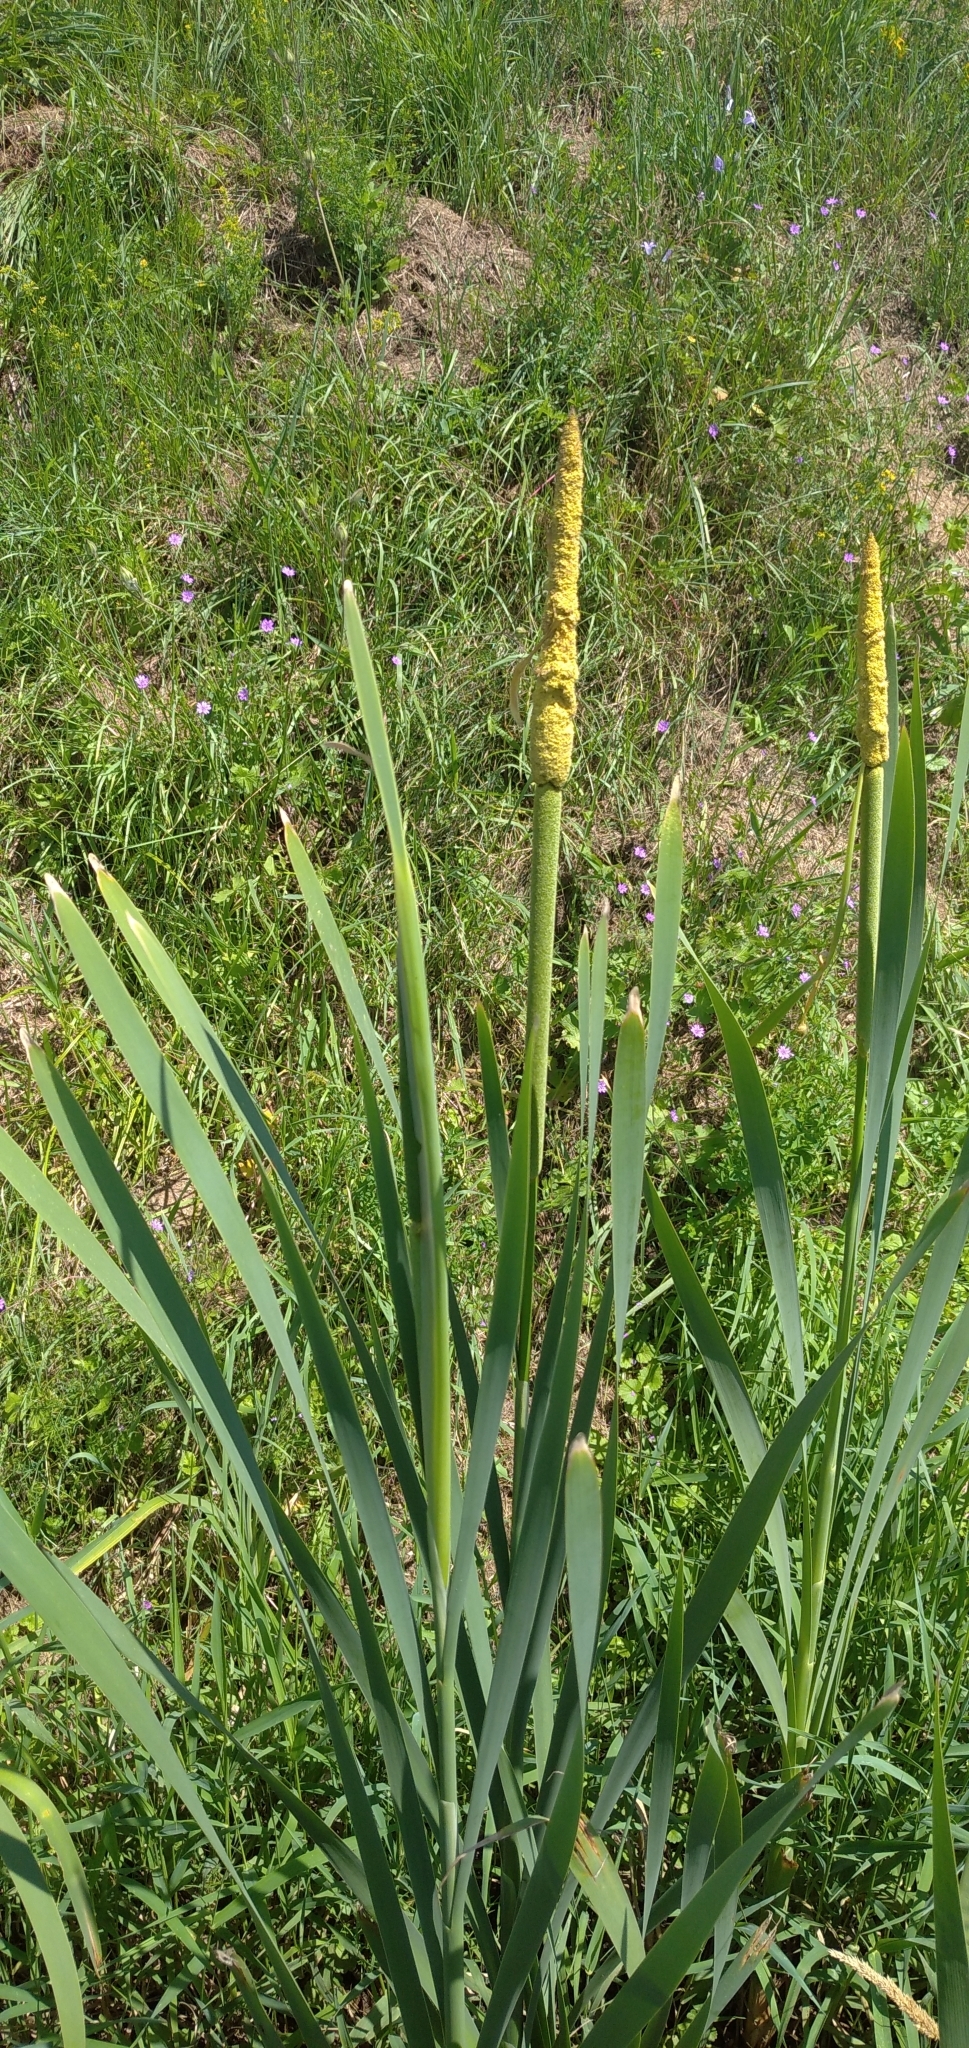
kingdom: Plantae
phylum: Tracheophyta
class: Liliopsida
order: Poales
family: Typhaceae
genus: Typha
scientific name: Typha latifolia
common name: Broadleaf cattail
